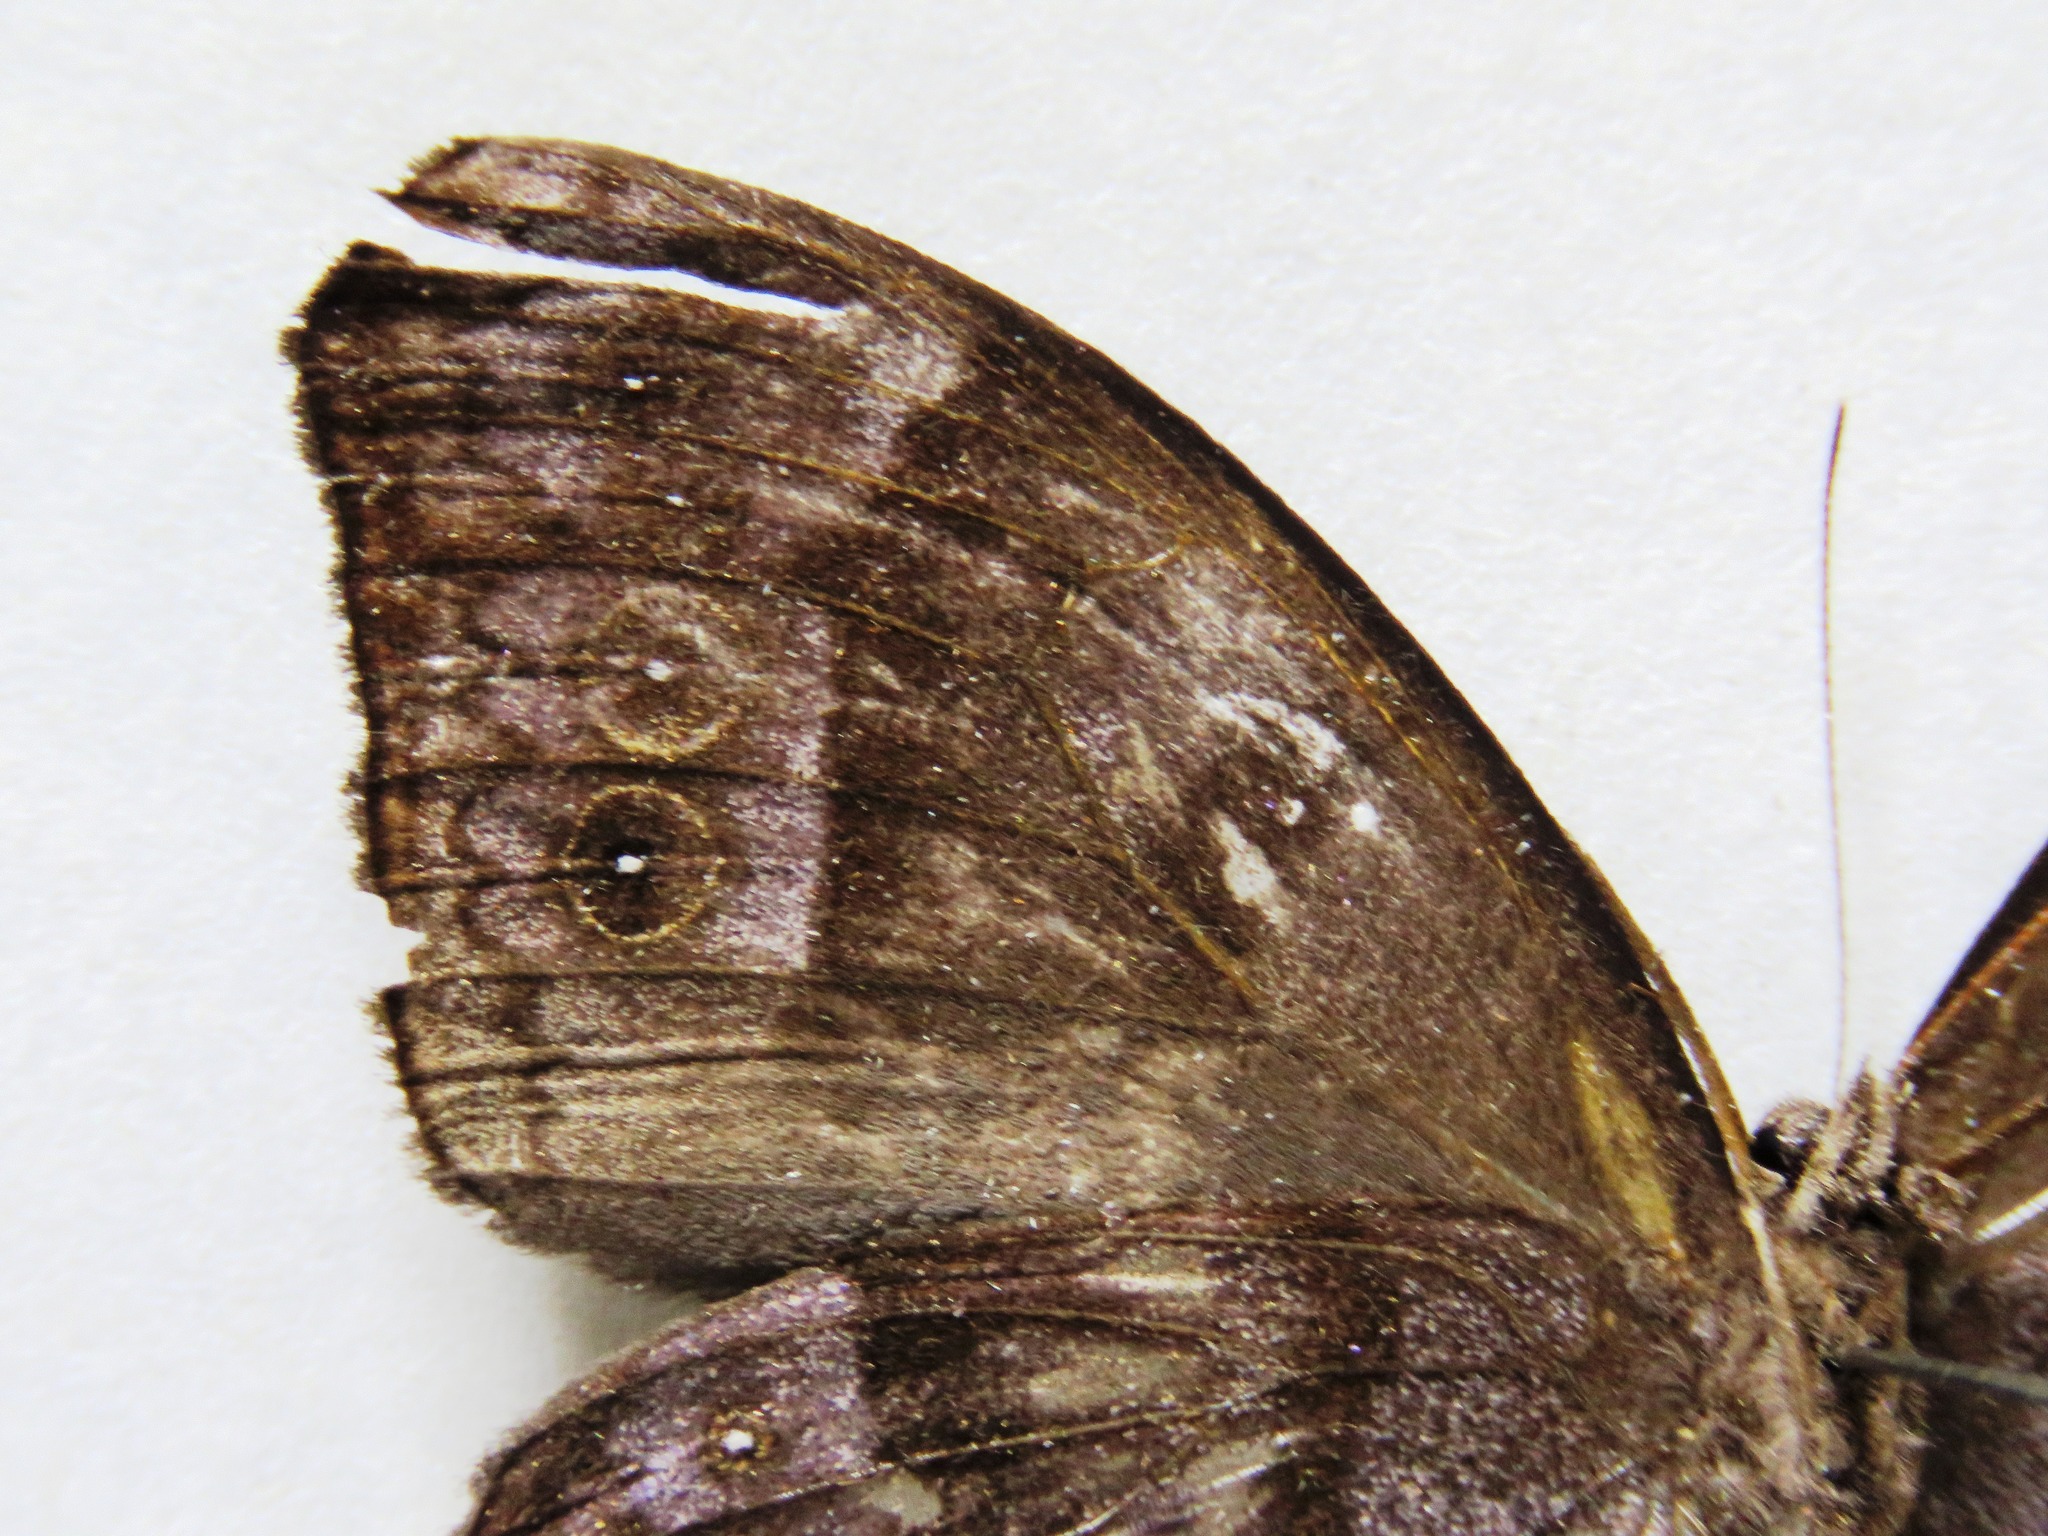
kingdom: Animalia
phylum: Arthropoda
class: Insecta
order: Lepidoptera
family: Nymphalidae
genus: Taygetis
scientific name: Taygetis uncinata
